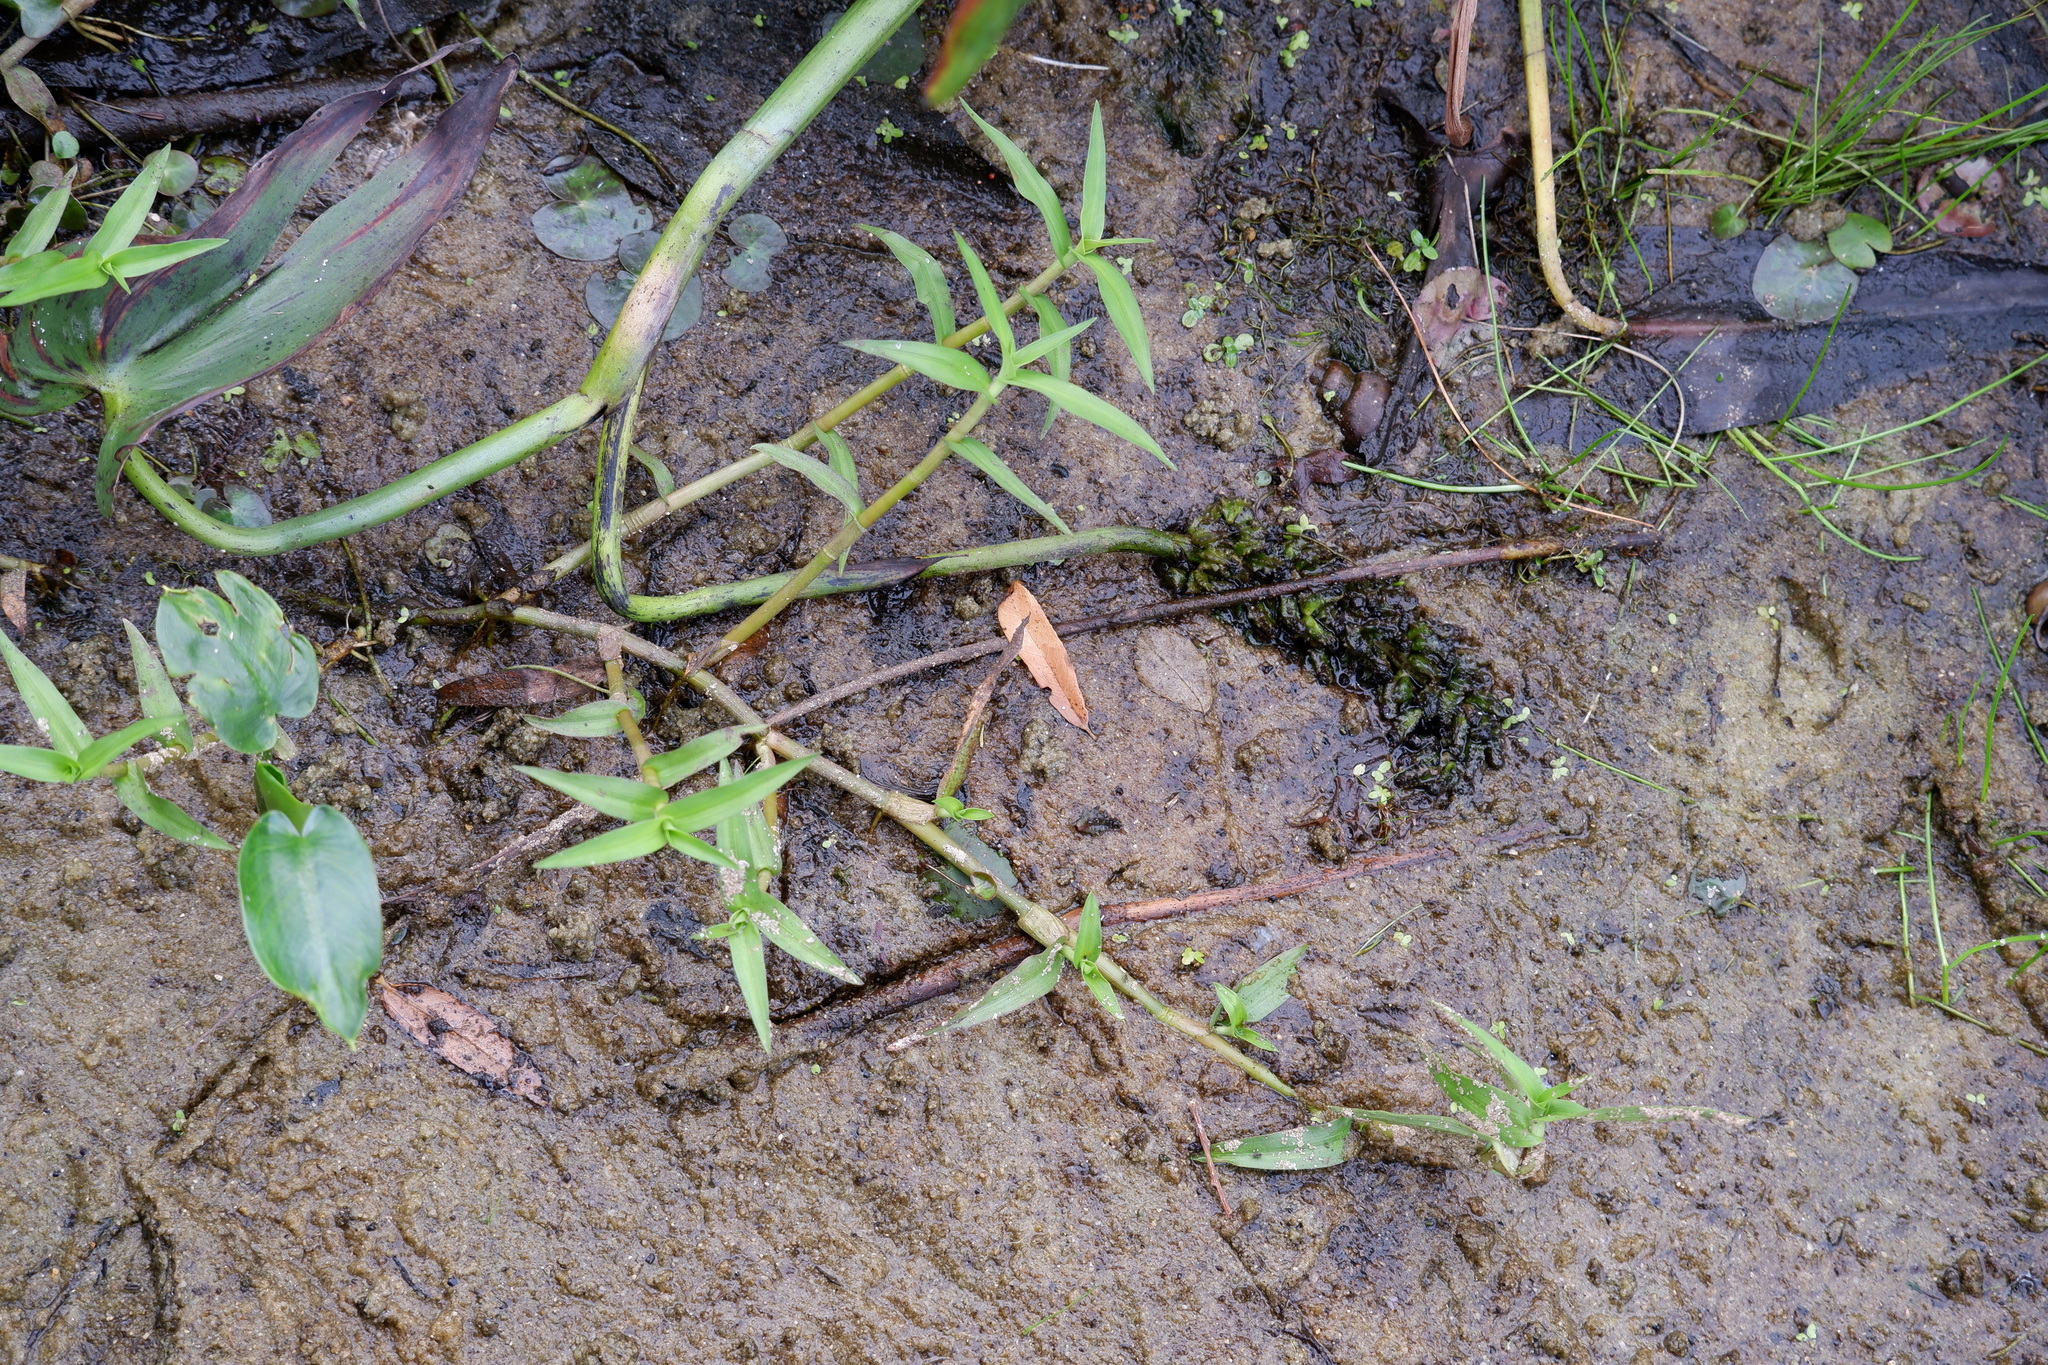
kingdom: Plantae
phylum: Tracheophyta
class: Liliopsida
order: Commelinales
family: Commelinaceae
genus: Murdannia
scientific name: Murdannia keisak
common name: Wartremoving herb
